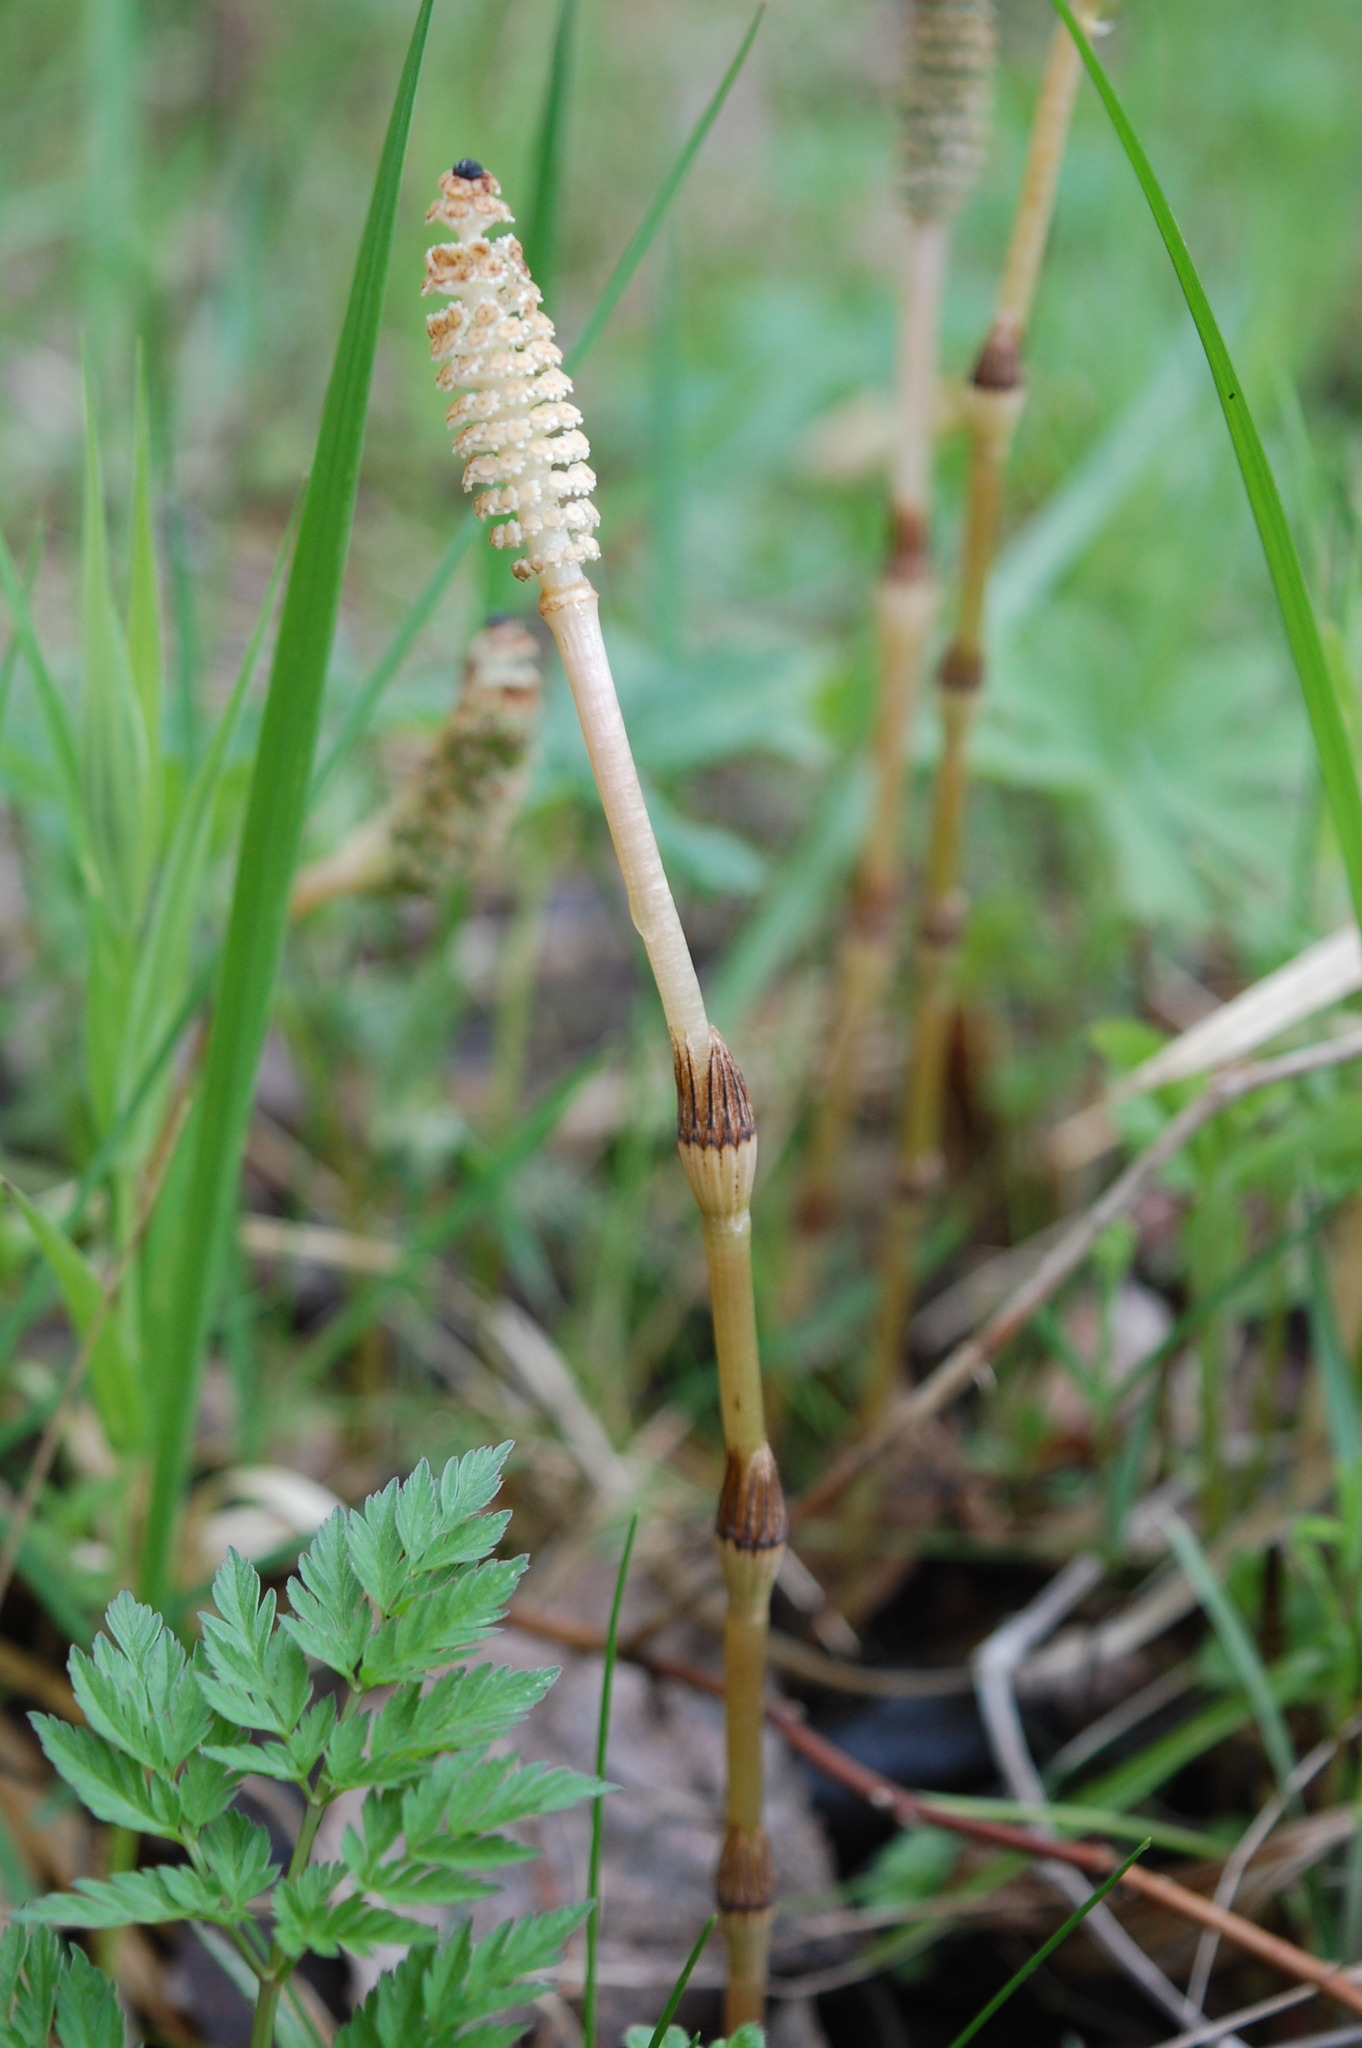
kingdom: Plantae
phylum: Tracheophyta
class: Polypodiopsida
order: Equisetales
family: Equisetaceae
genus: Equisetum
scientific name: Equisetum pratense
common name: Meadow horsetail
